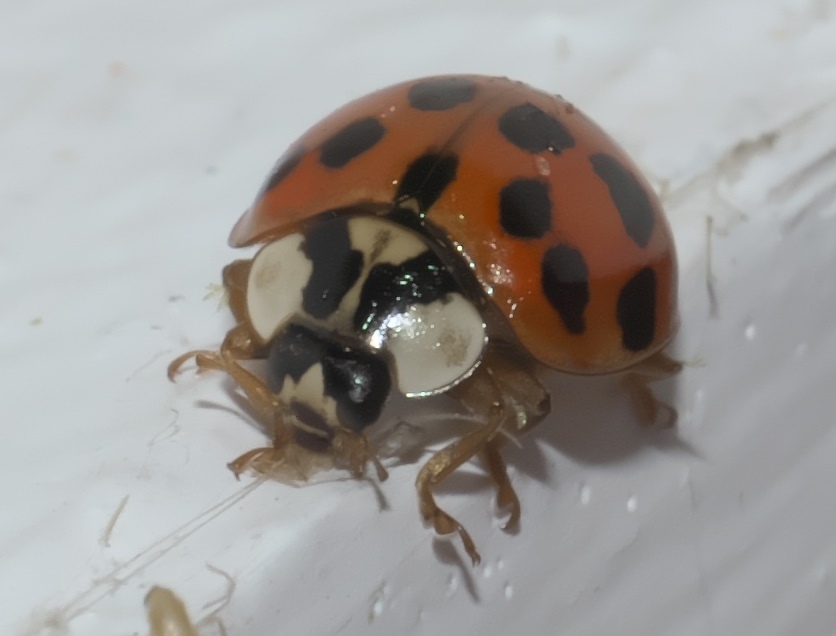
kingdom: Animalia
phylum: Arthropoda
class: Insecta
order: Coleoptera
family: Coccinellidae
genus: Harmonia
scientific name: Harmonia axyridis
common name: Harlequin ladybird
